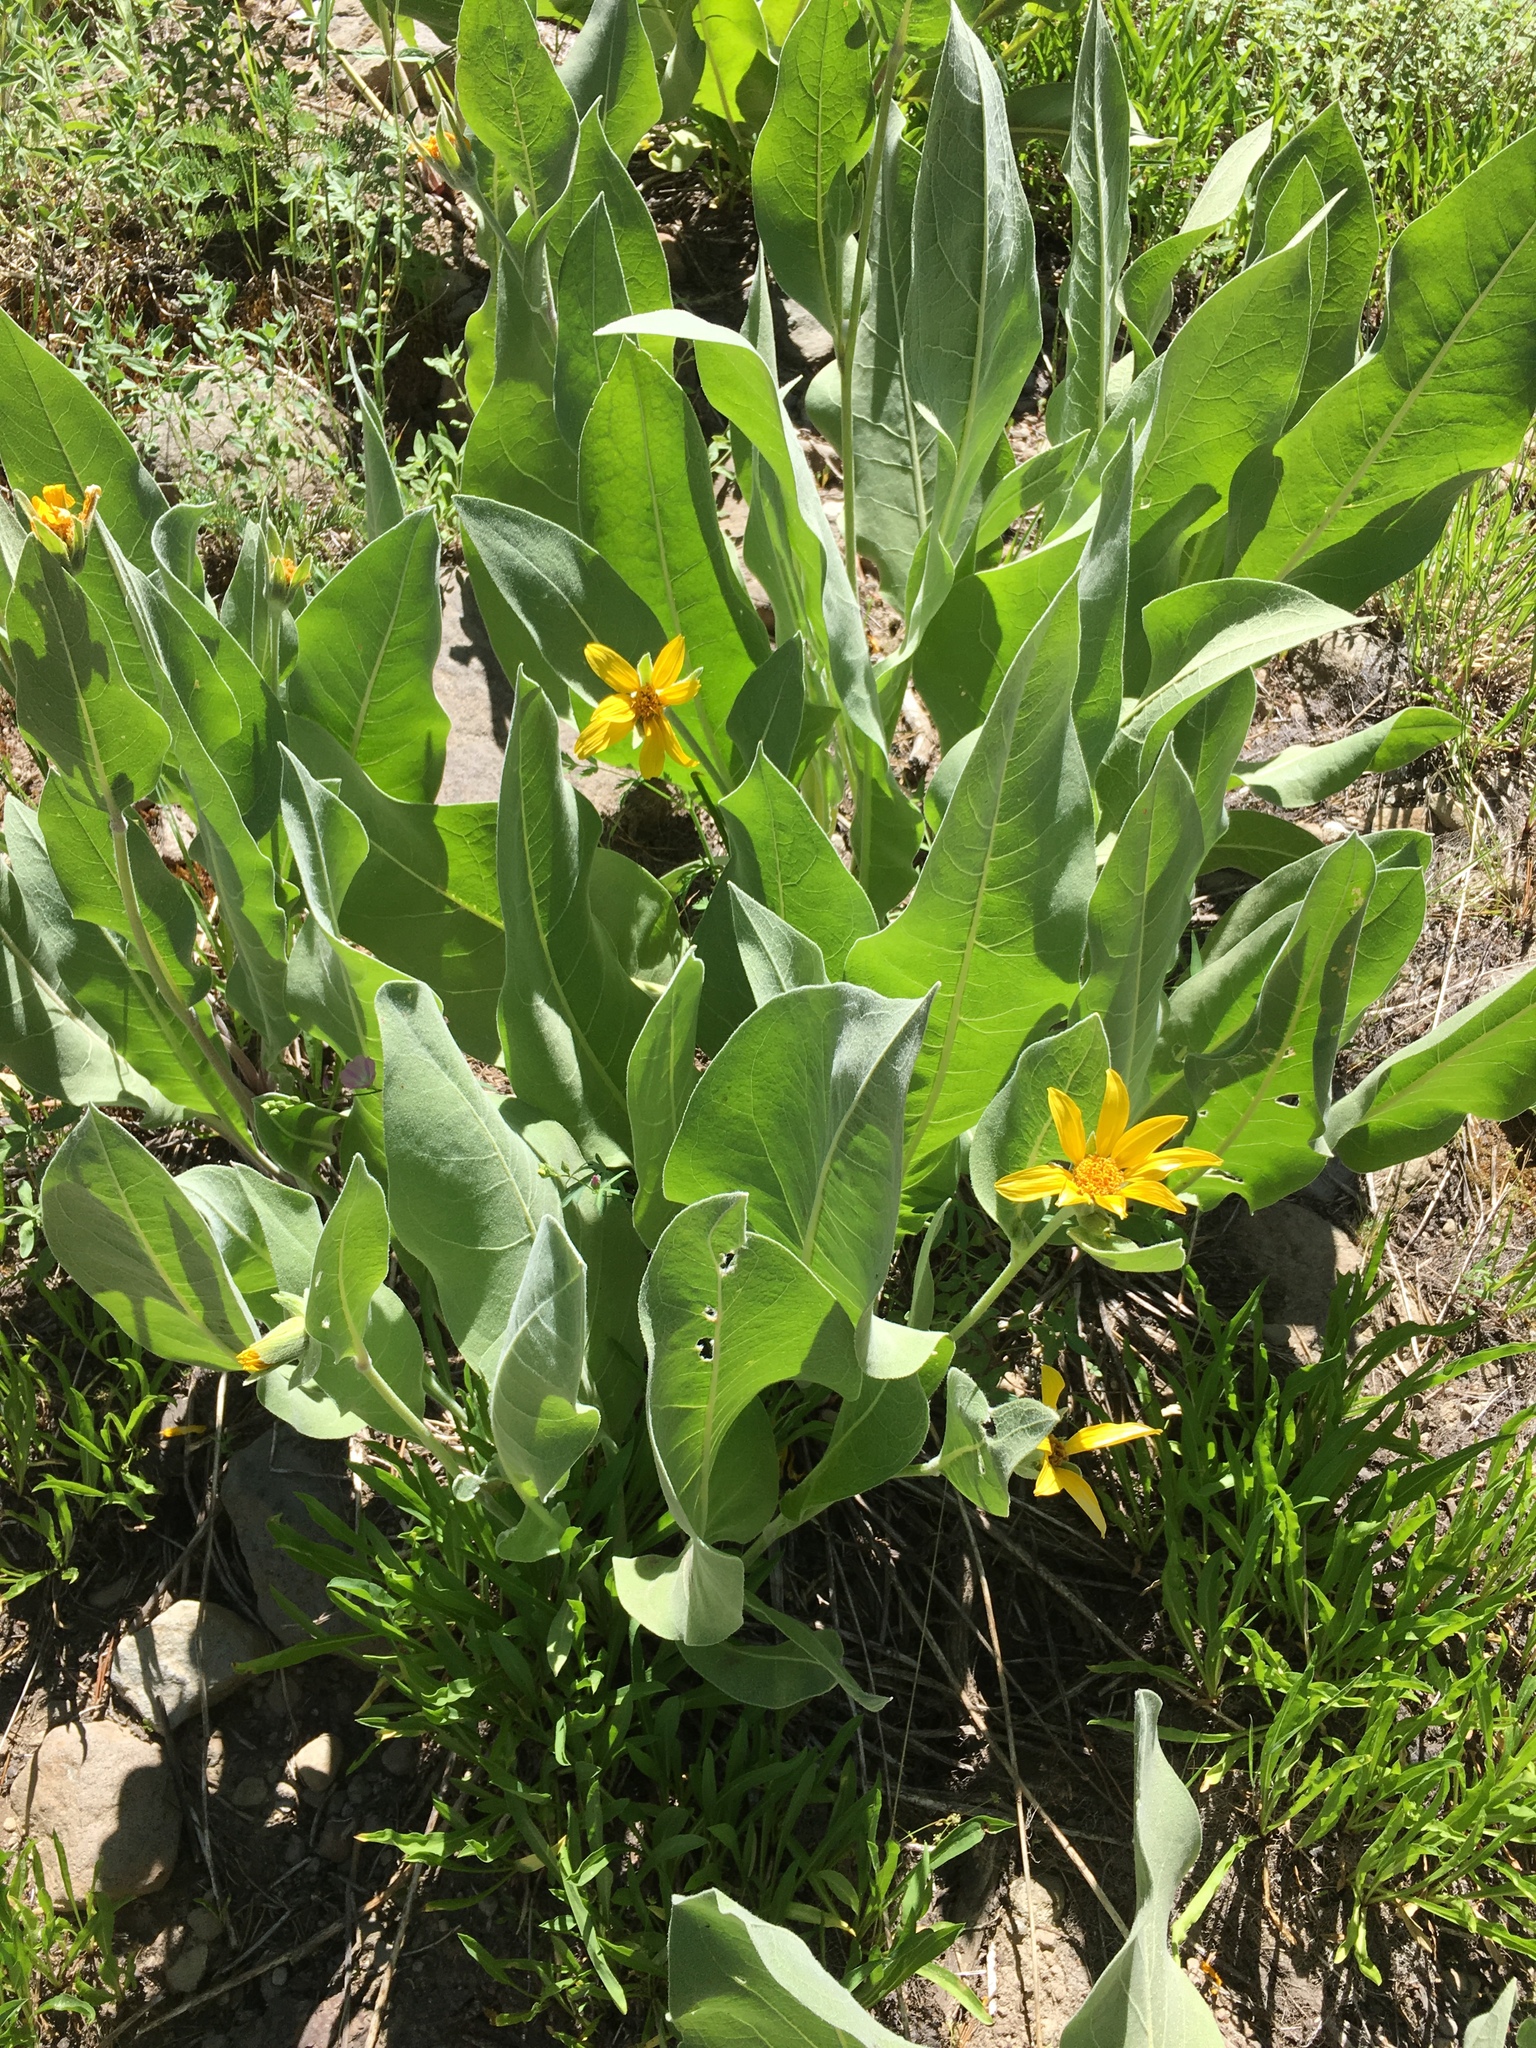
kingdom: Plantae
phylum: Tracheophyta
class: Magnoliopsida
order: Asterales
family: Asteraceae
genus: Wyethia
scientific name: Wyethia mollis
